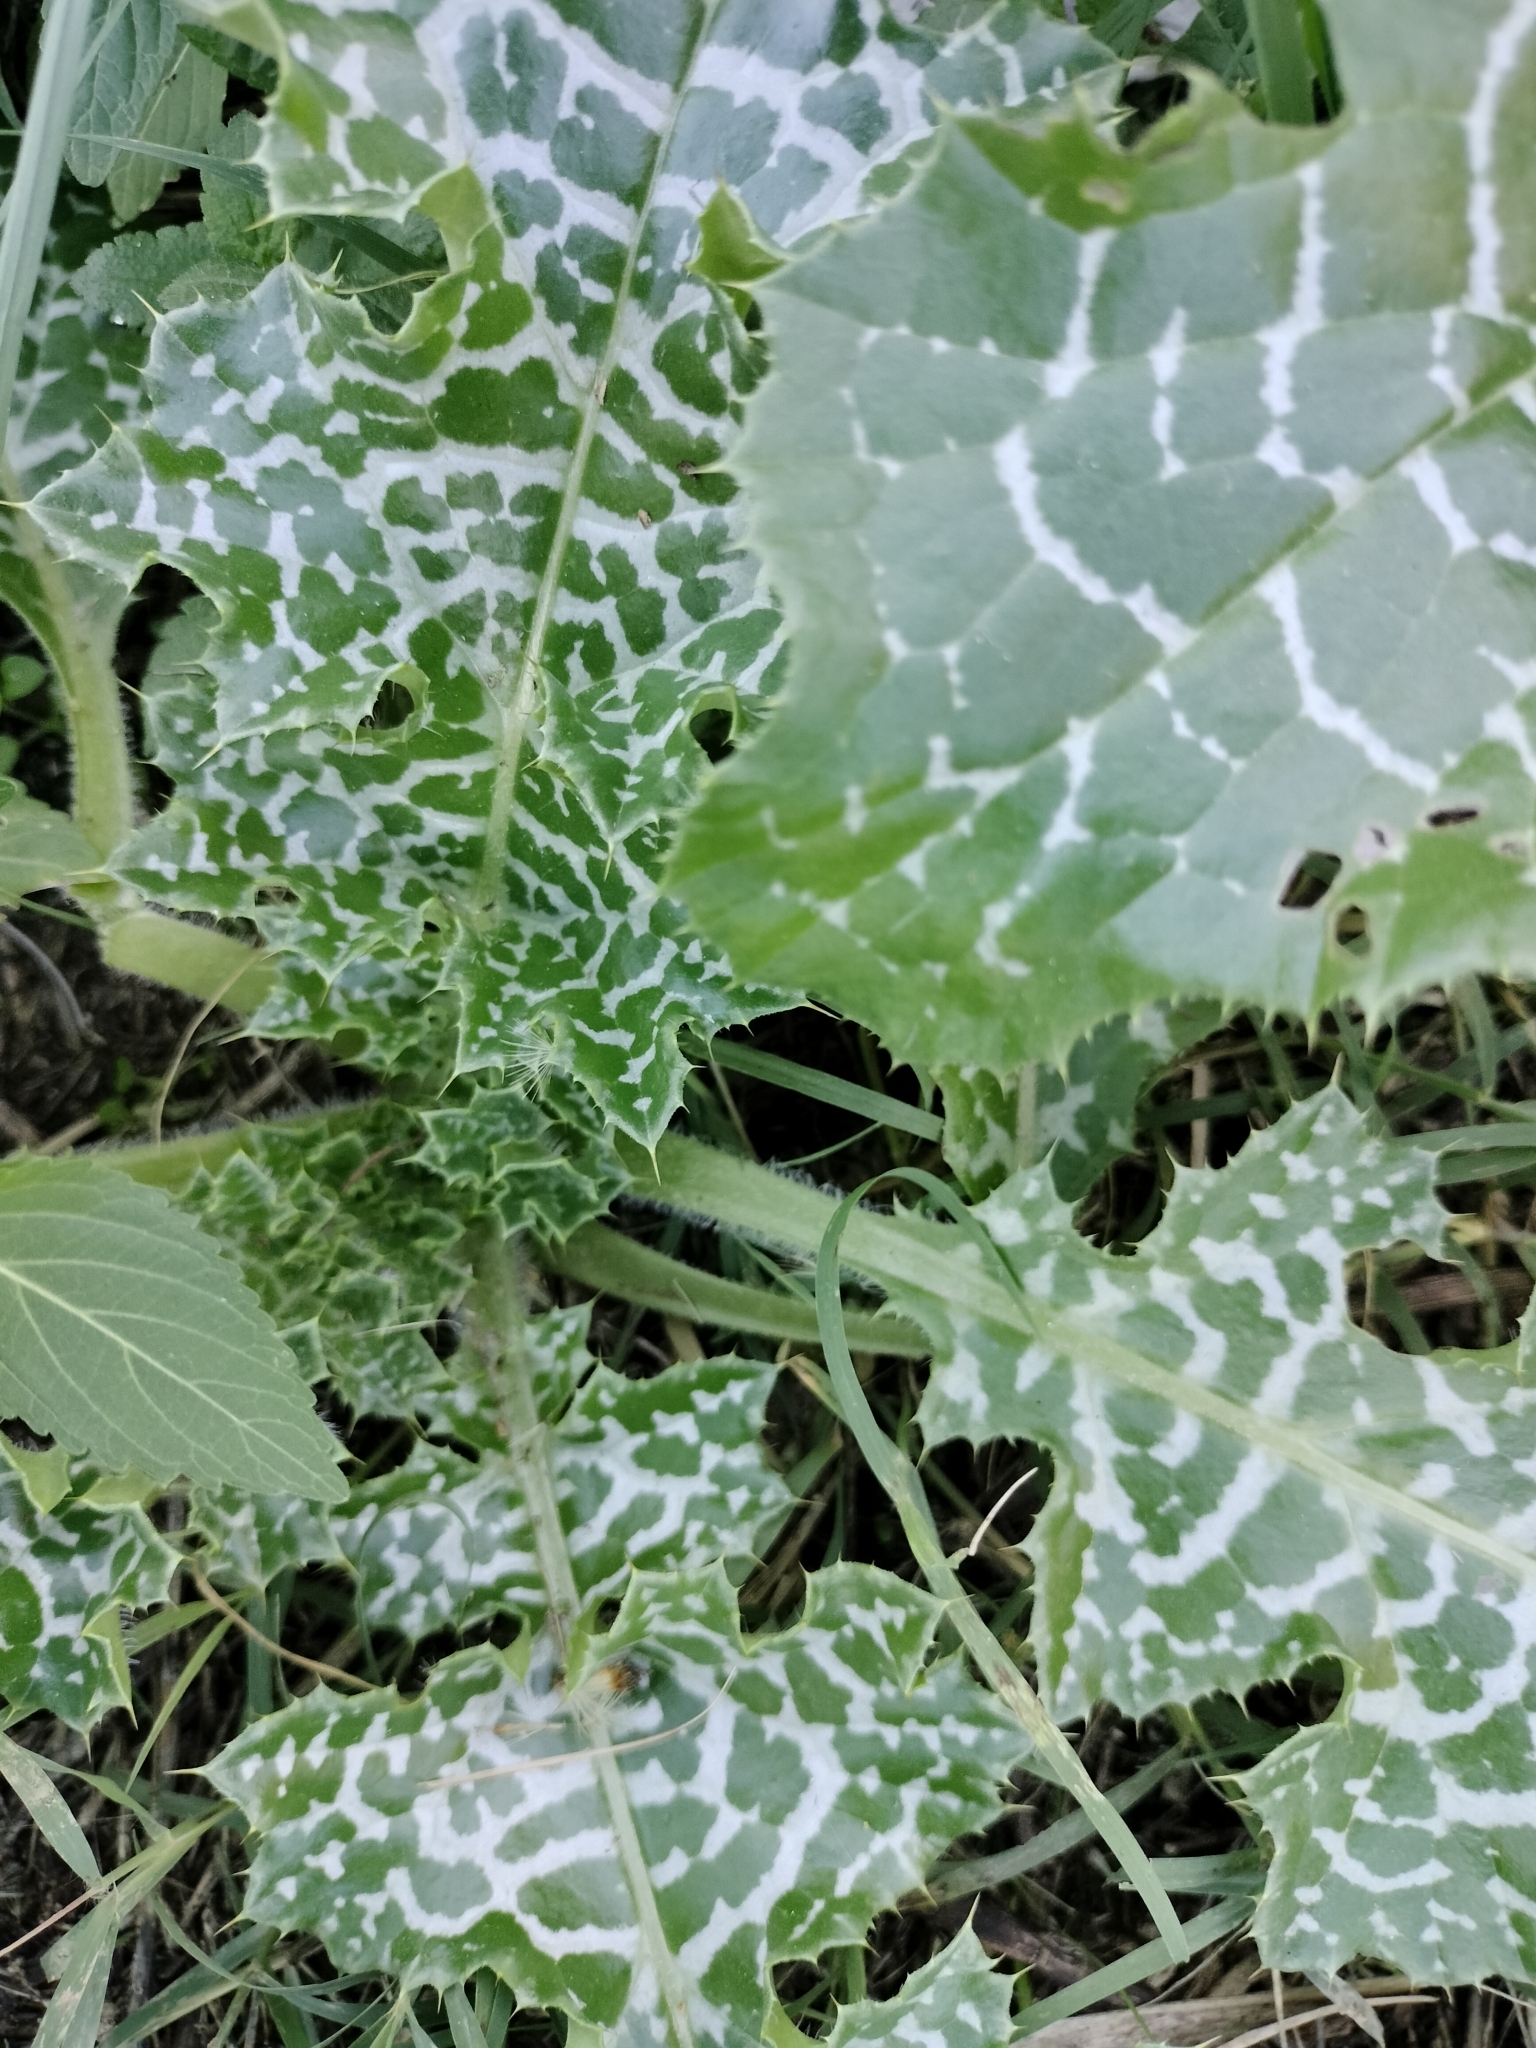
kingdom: Plantae
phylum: Tracheophyta
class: Magnoliopsida
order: Asterales
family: Asteraceae
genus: Silybum
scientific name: Silybum marianum
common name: Milk thistle
